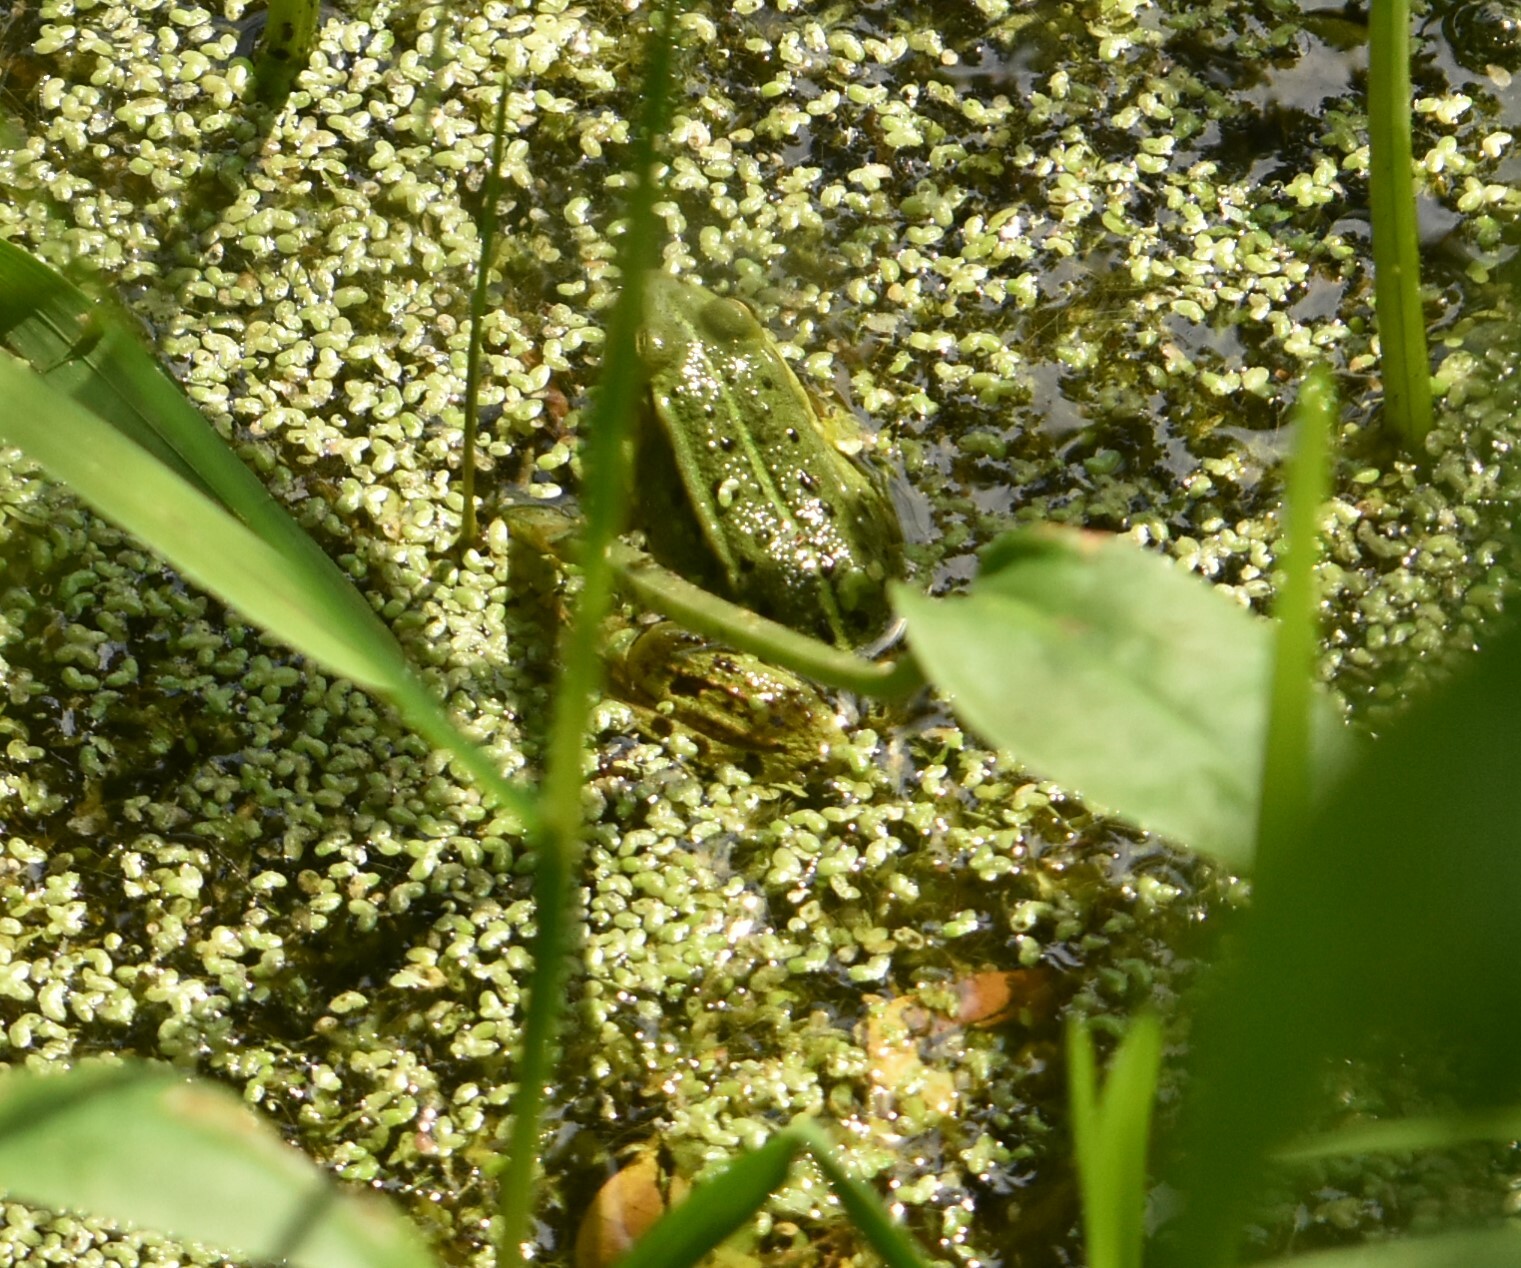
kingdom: Animalia
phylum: Chordata
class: Amphibia
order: Anura
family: Ranidae
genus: Pelophylax
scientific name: Pelophylax lessonae
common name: Pool frog
